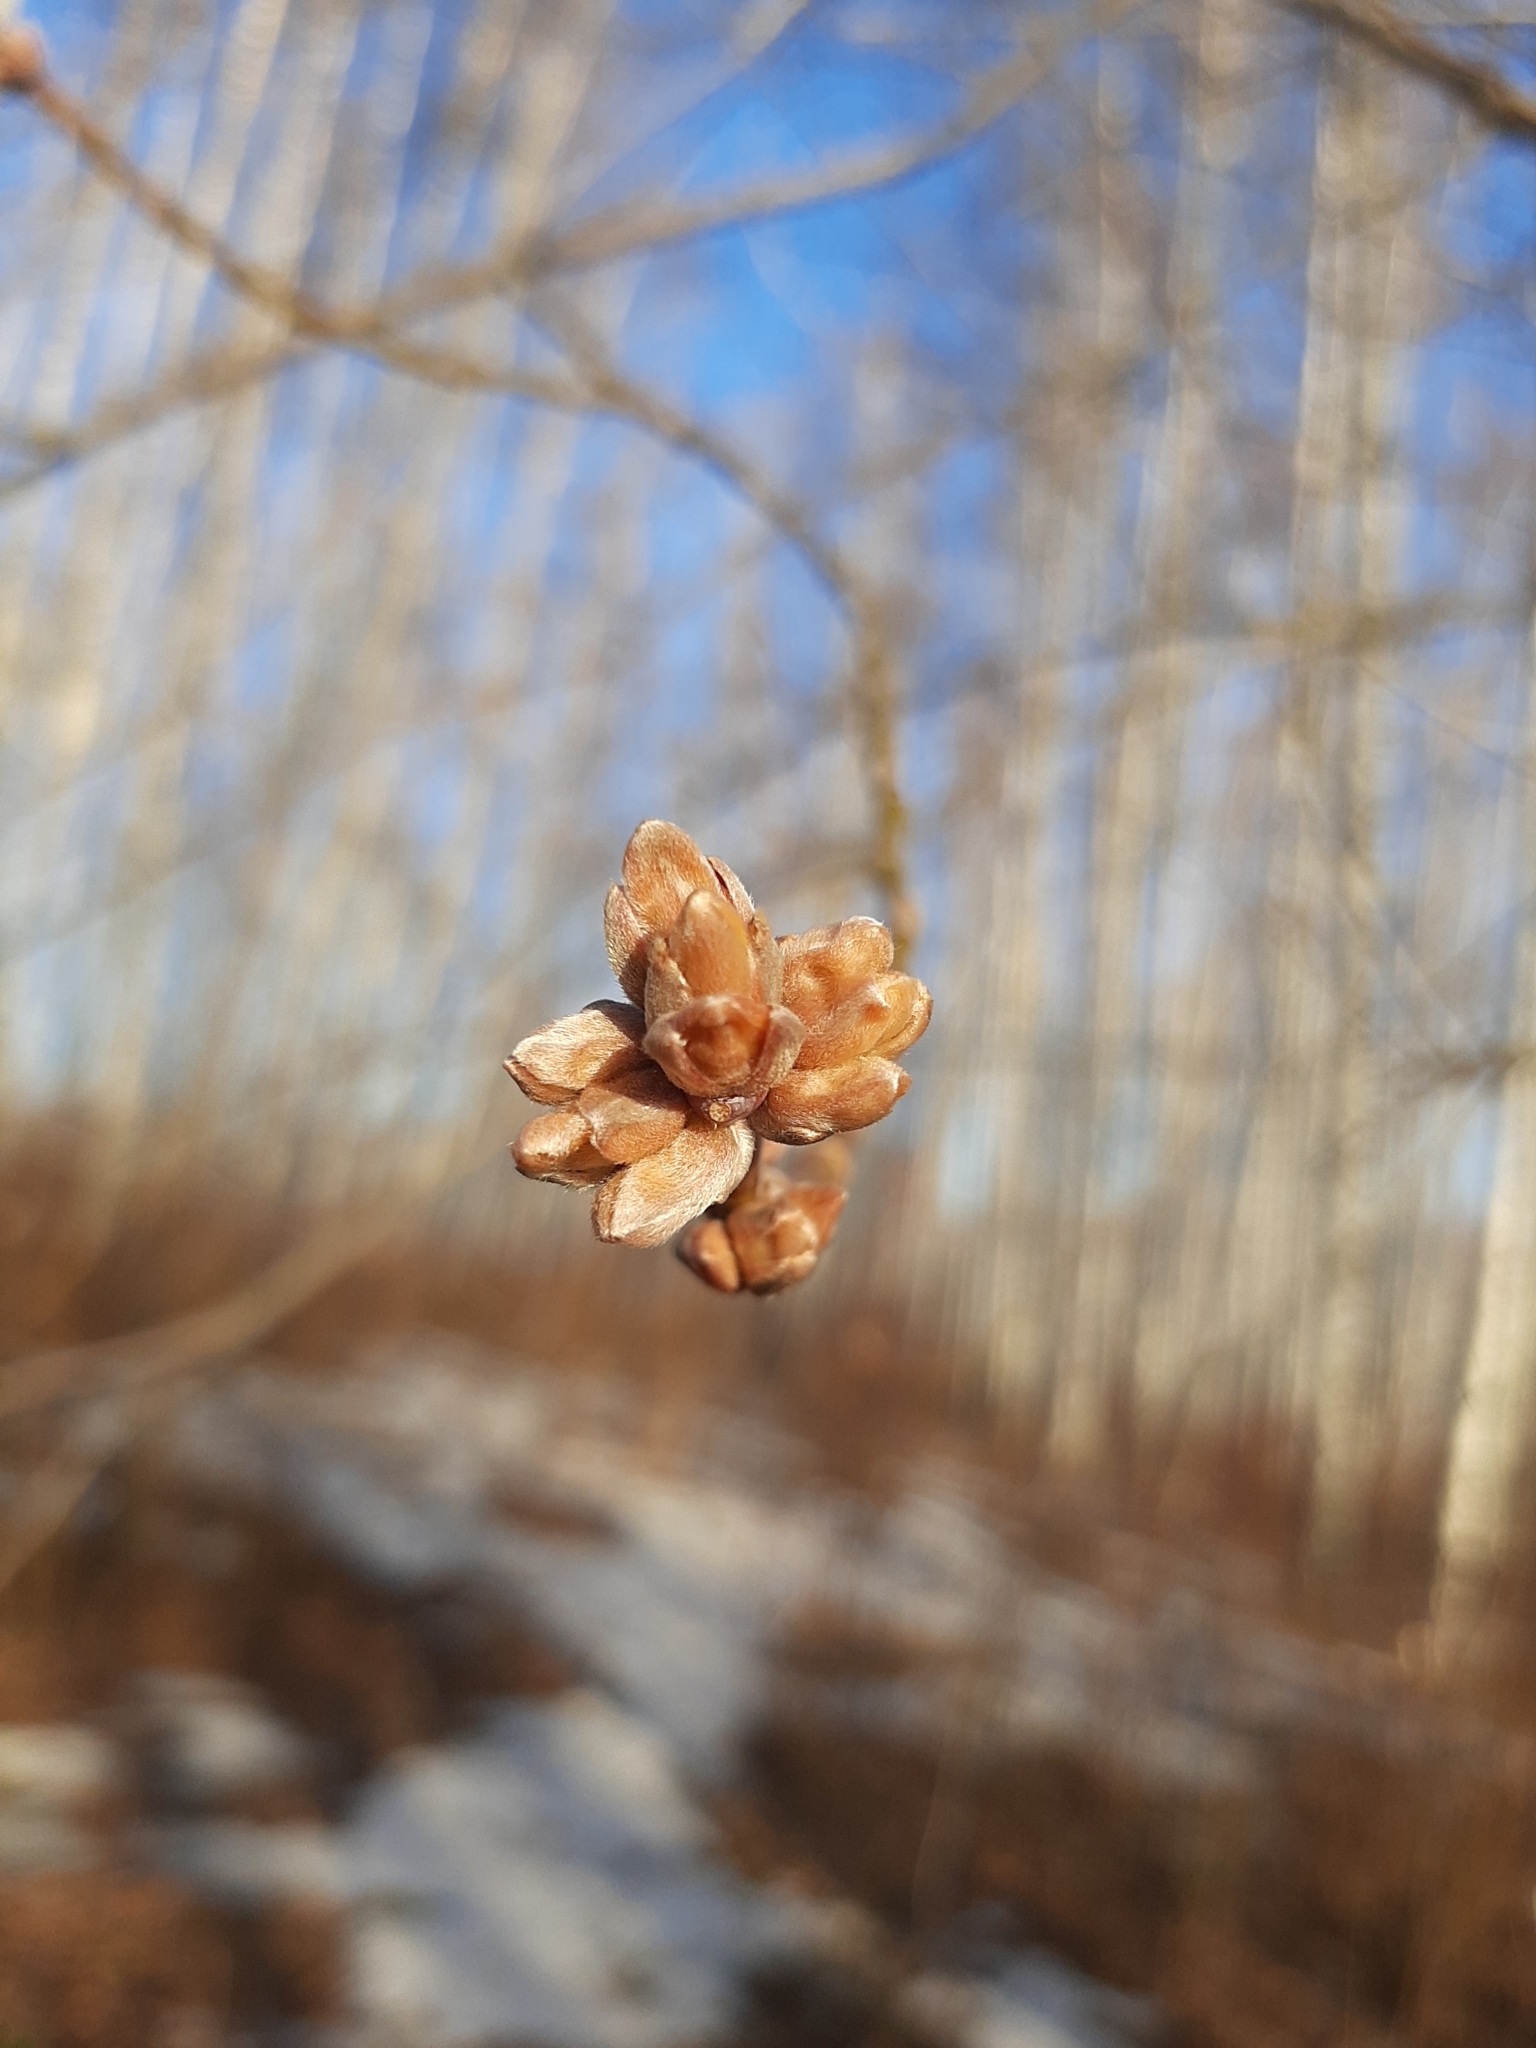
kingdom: Plantae
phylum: Tracheophyta
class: Magnoliopsida
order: Sapindales
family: Sapindaceae
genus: Acer
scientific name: Acer negundo
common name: Ashleaf maple
